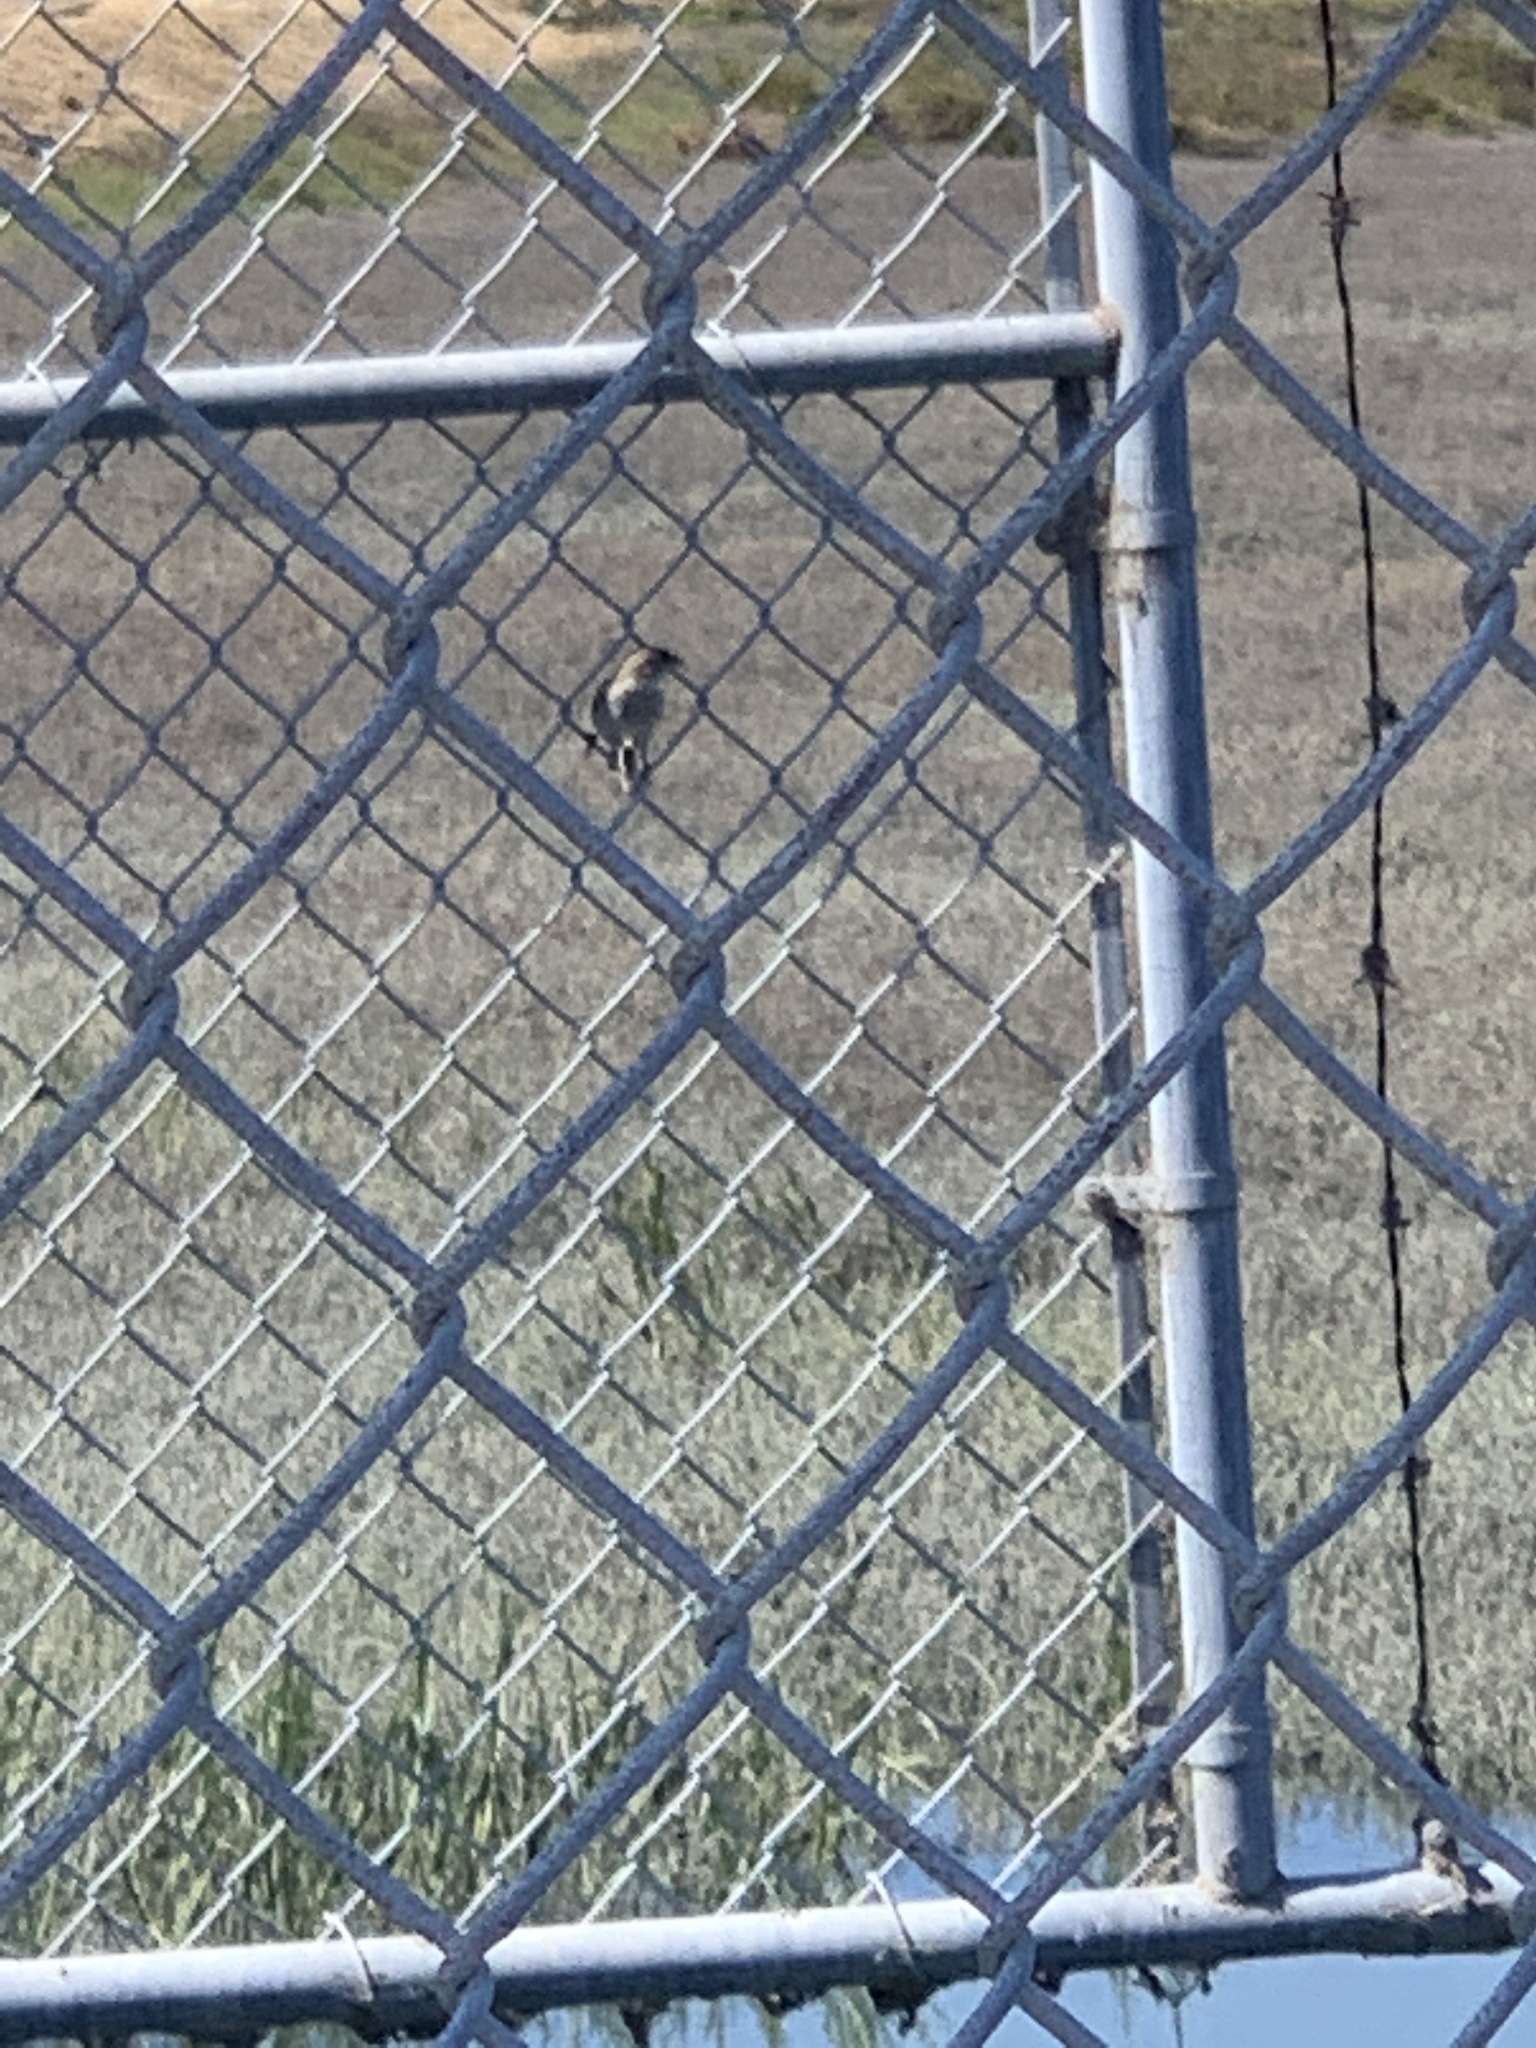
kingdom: Animalia
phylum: Chordata
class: Aves
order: Passeriformes
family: Passeridae
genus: Passer
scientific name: Passer domesticus
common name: House sparrow
